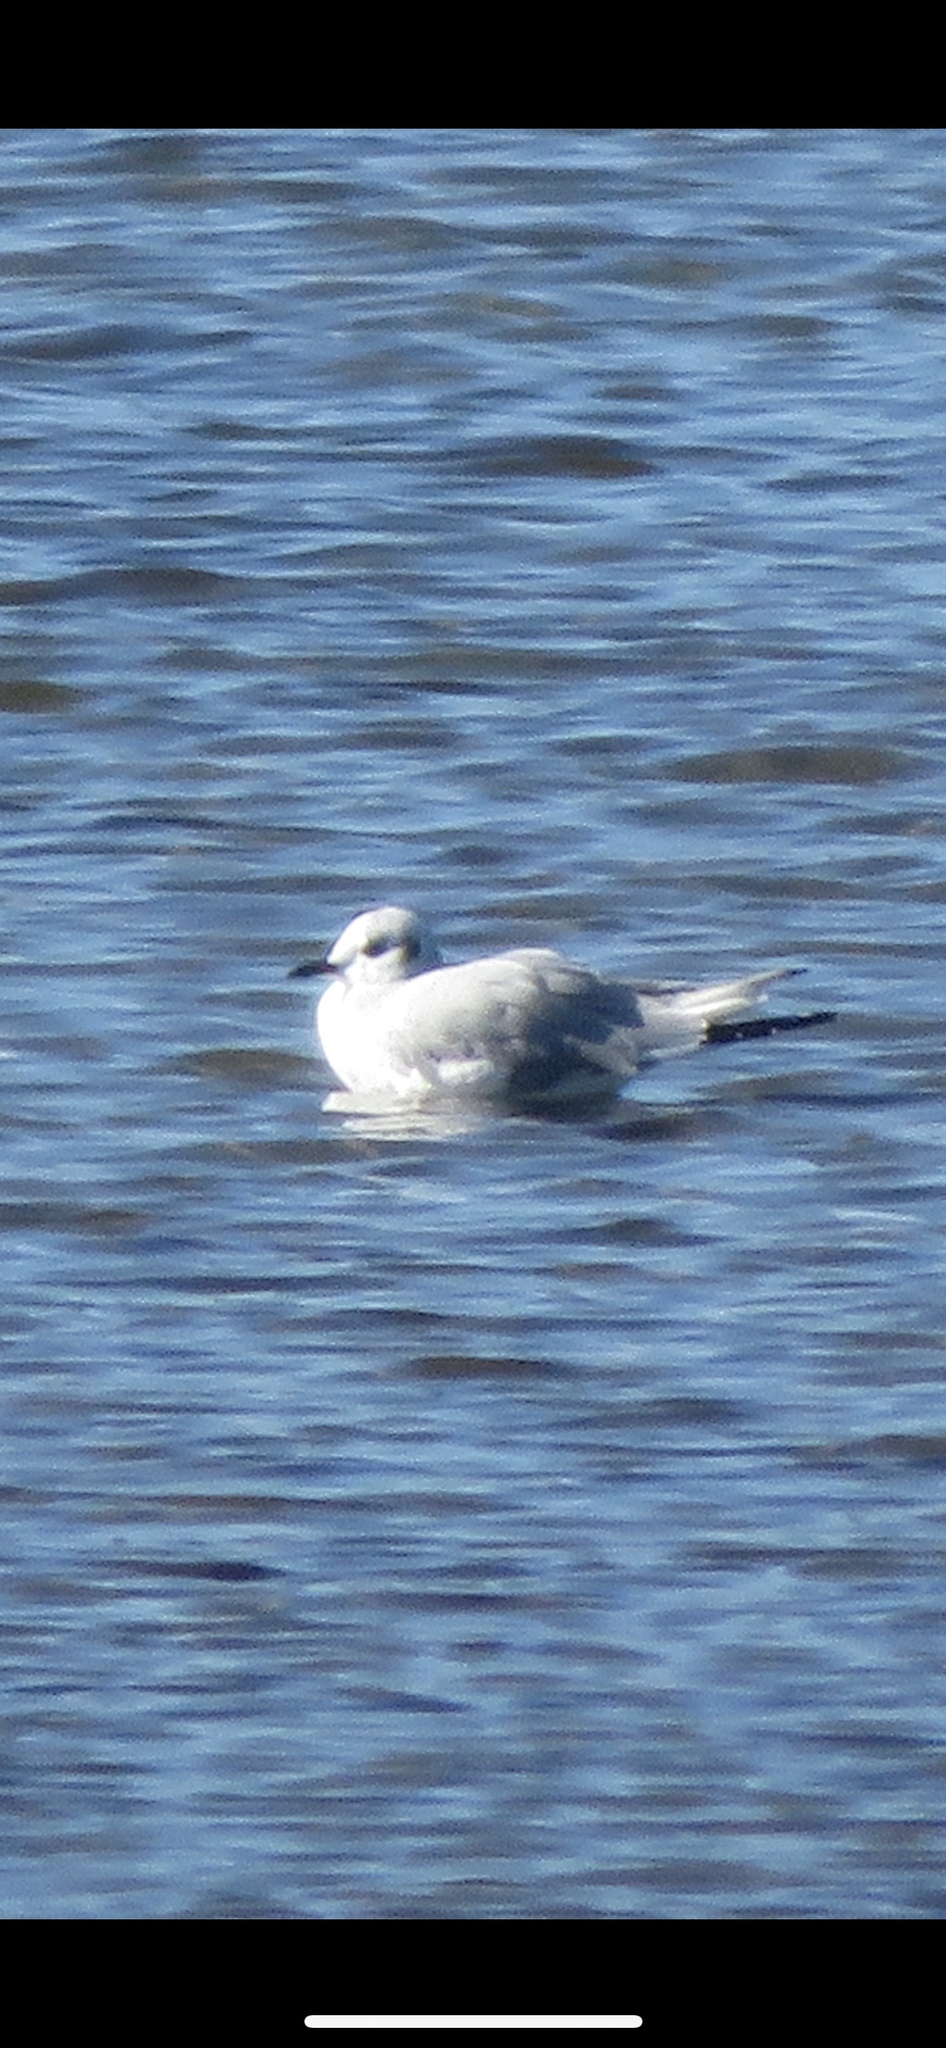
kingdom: Animalia
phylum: Chordata
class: Aves
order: Charadriiformes
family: Laridae
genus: Chroicocephalus
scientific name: Chroicocephalus philadelphia
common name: Bonaparte's gull
